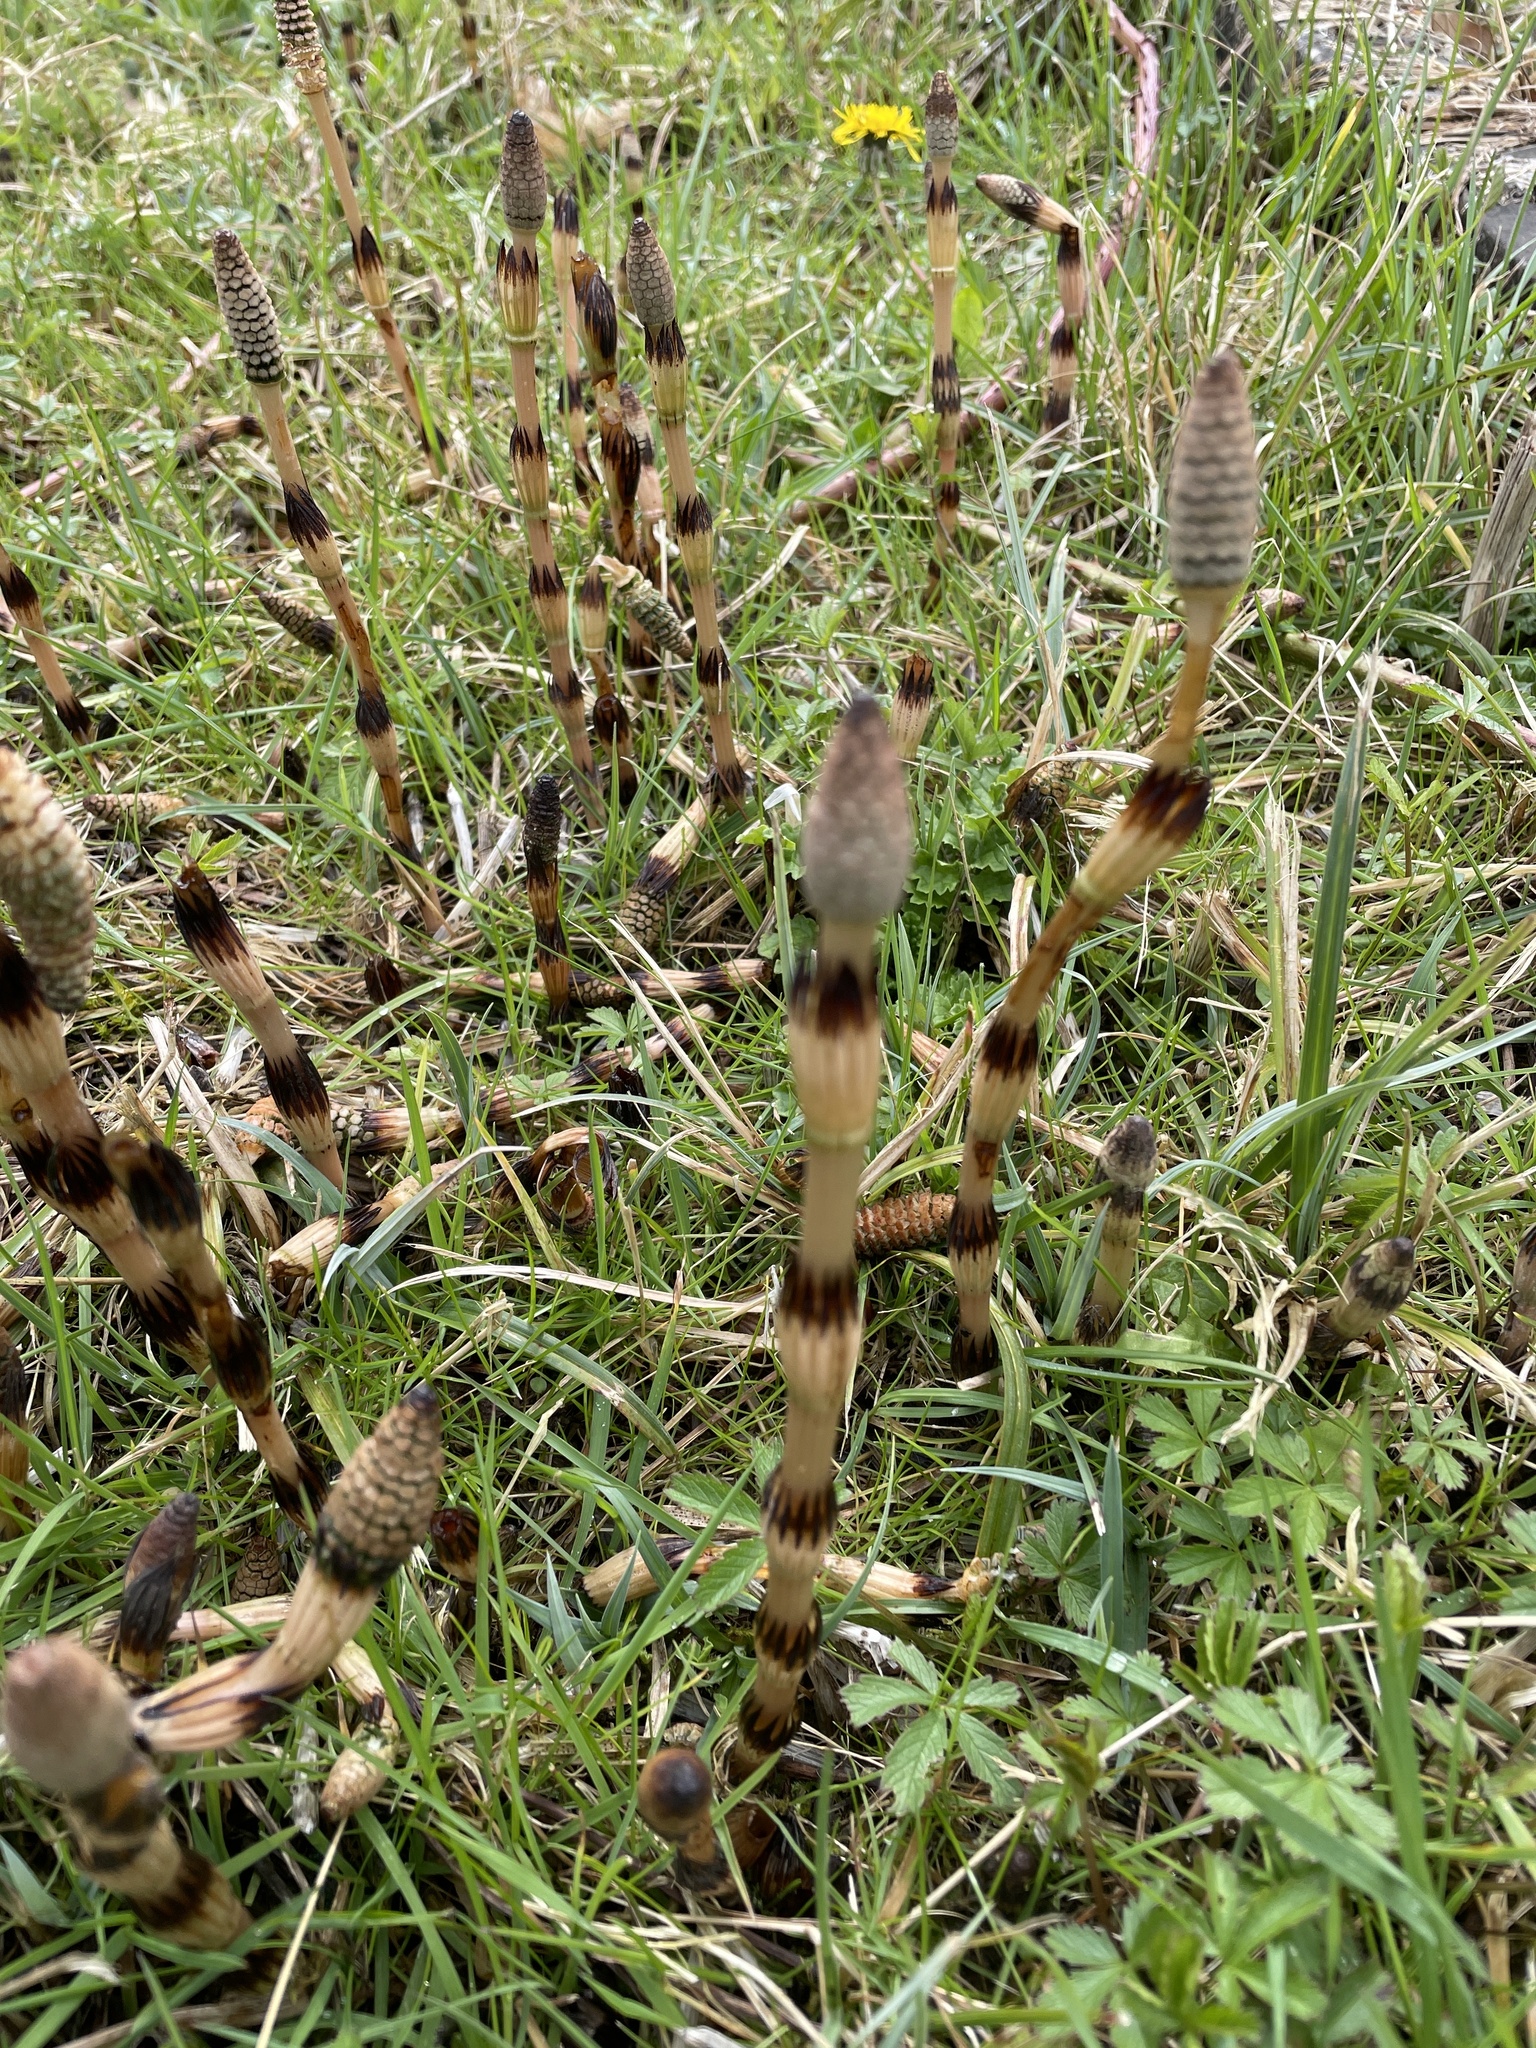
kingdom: Plantae
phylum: Tracheophyta
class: Polypodiopsida
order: Equisetales
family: Equisetaceae
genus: Equisetum
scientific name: Equisetum arvense
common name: Field horsetail
